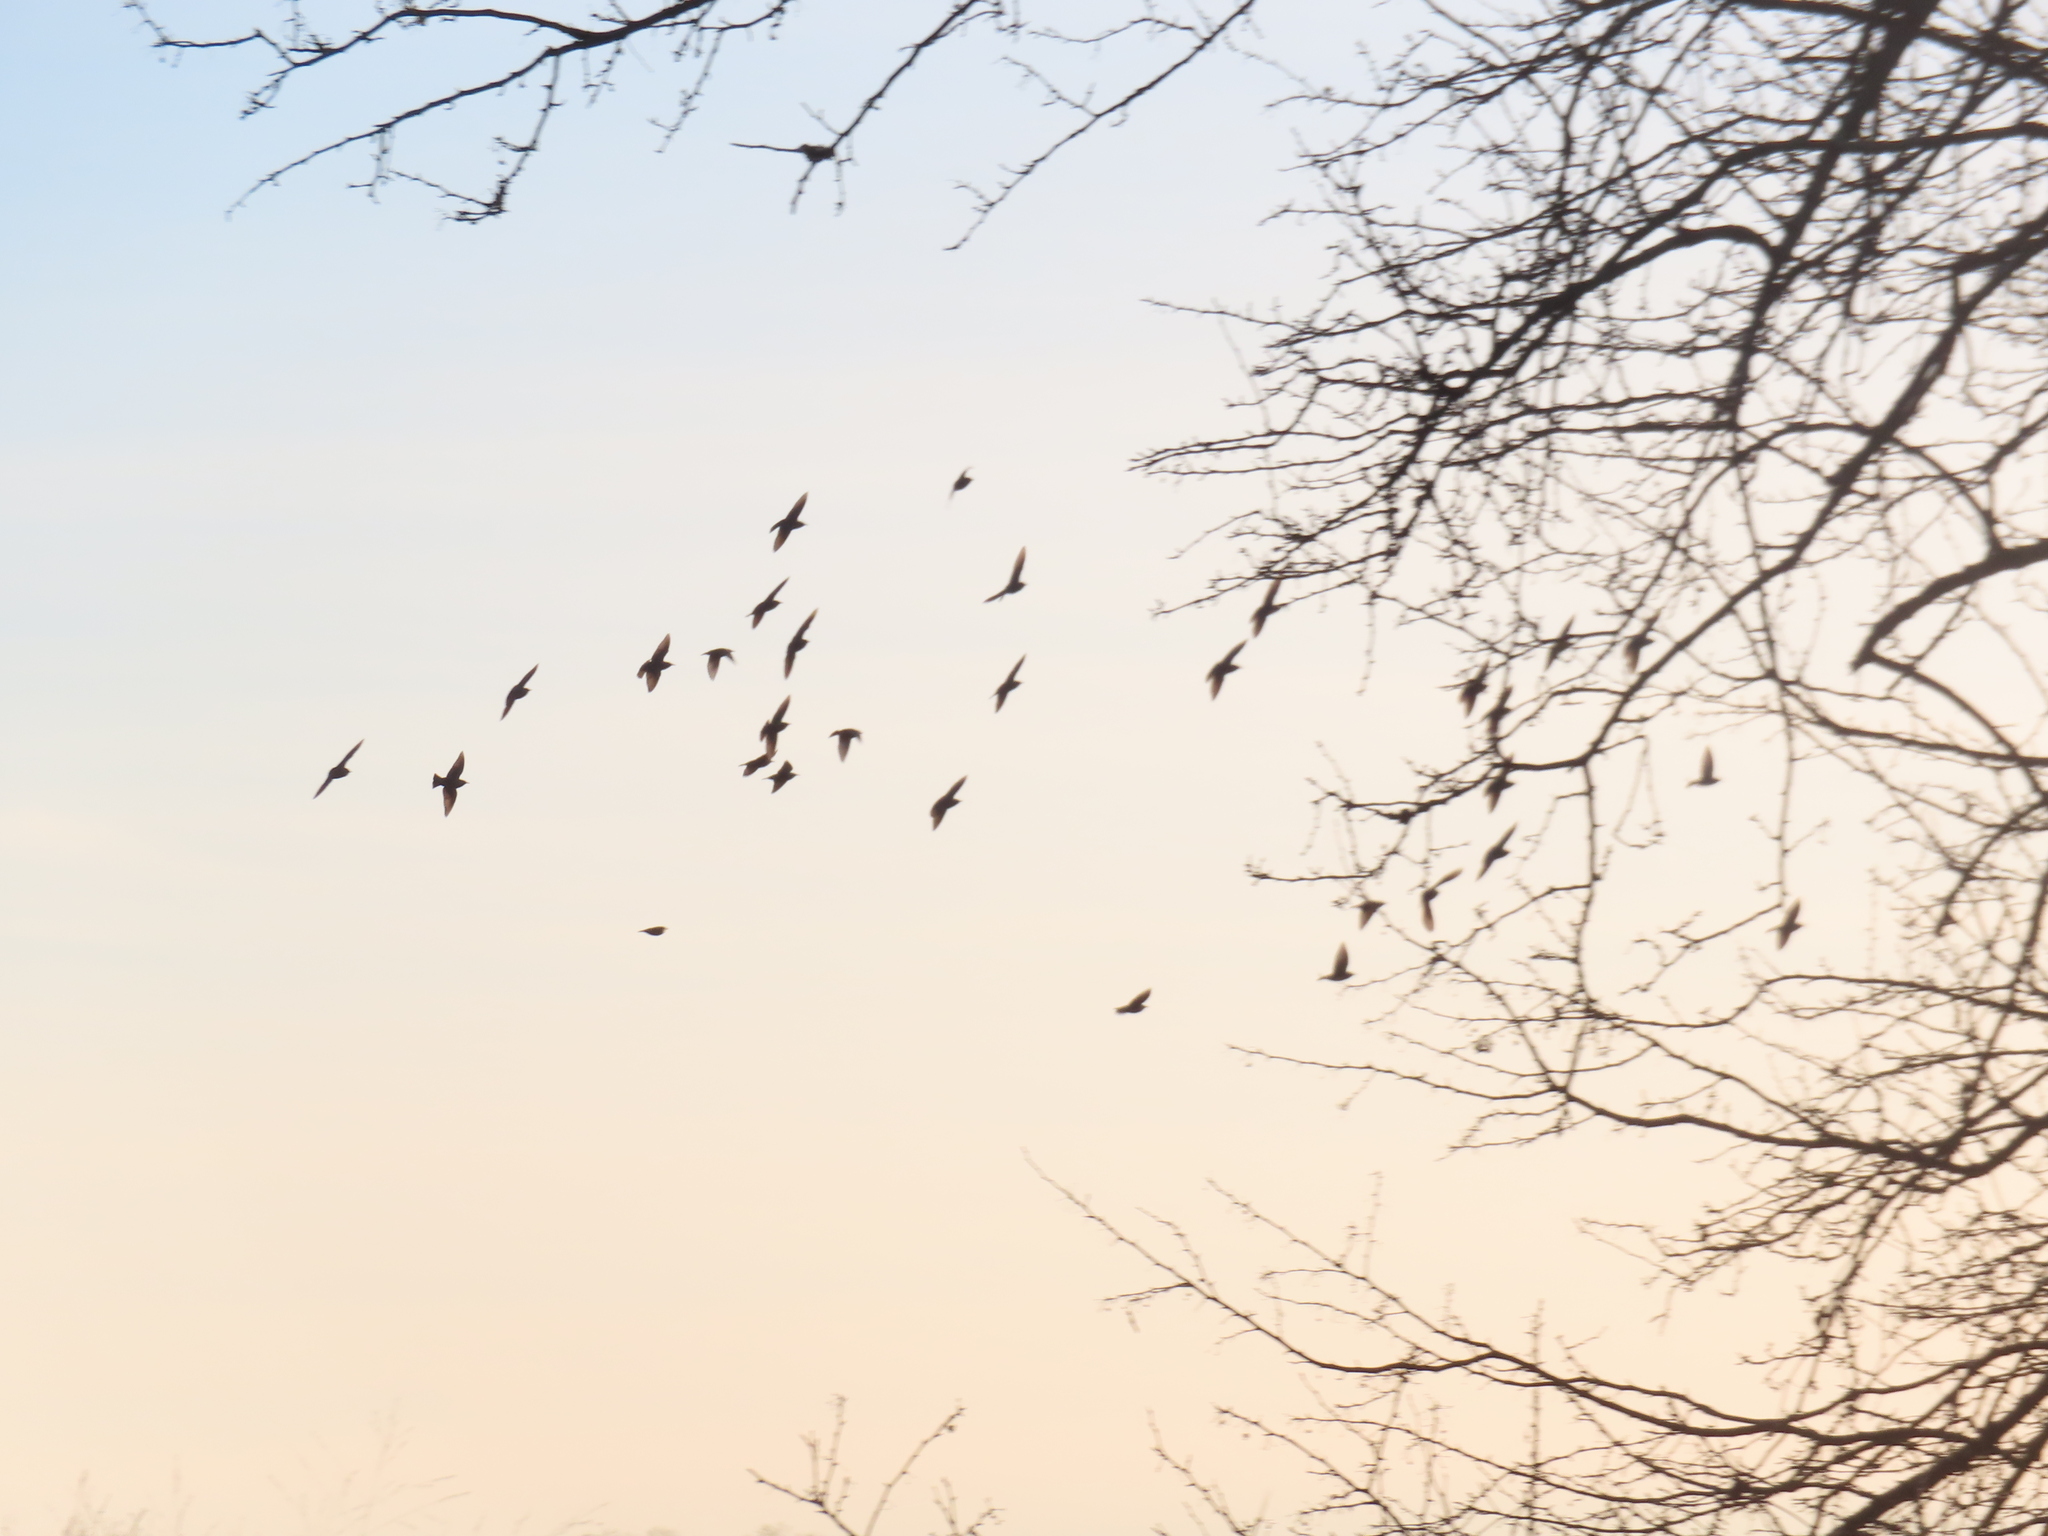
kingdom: Animalia
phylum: Chordata
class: Aves
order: Passeriformes
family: Sturnidae
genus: Sturnus
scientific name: Sturnus vulgaris
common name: Common starling
